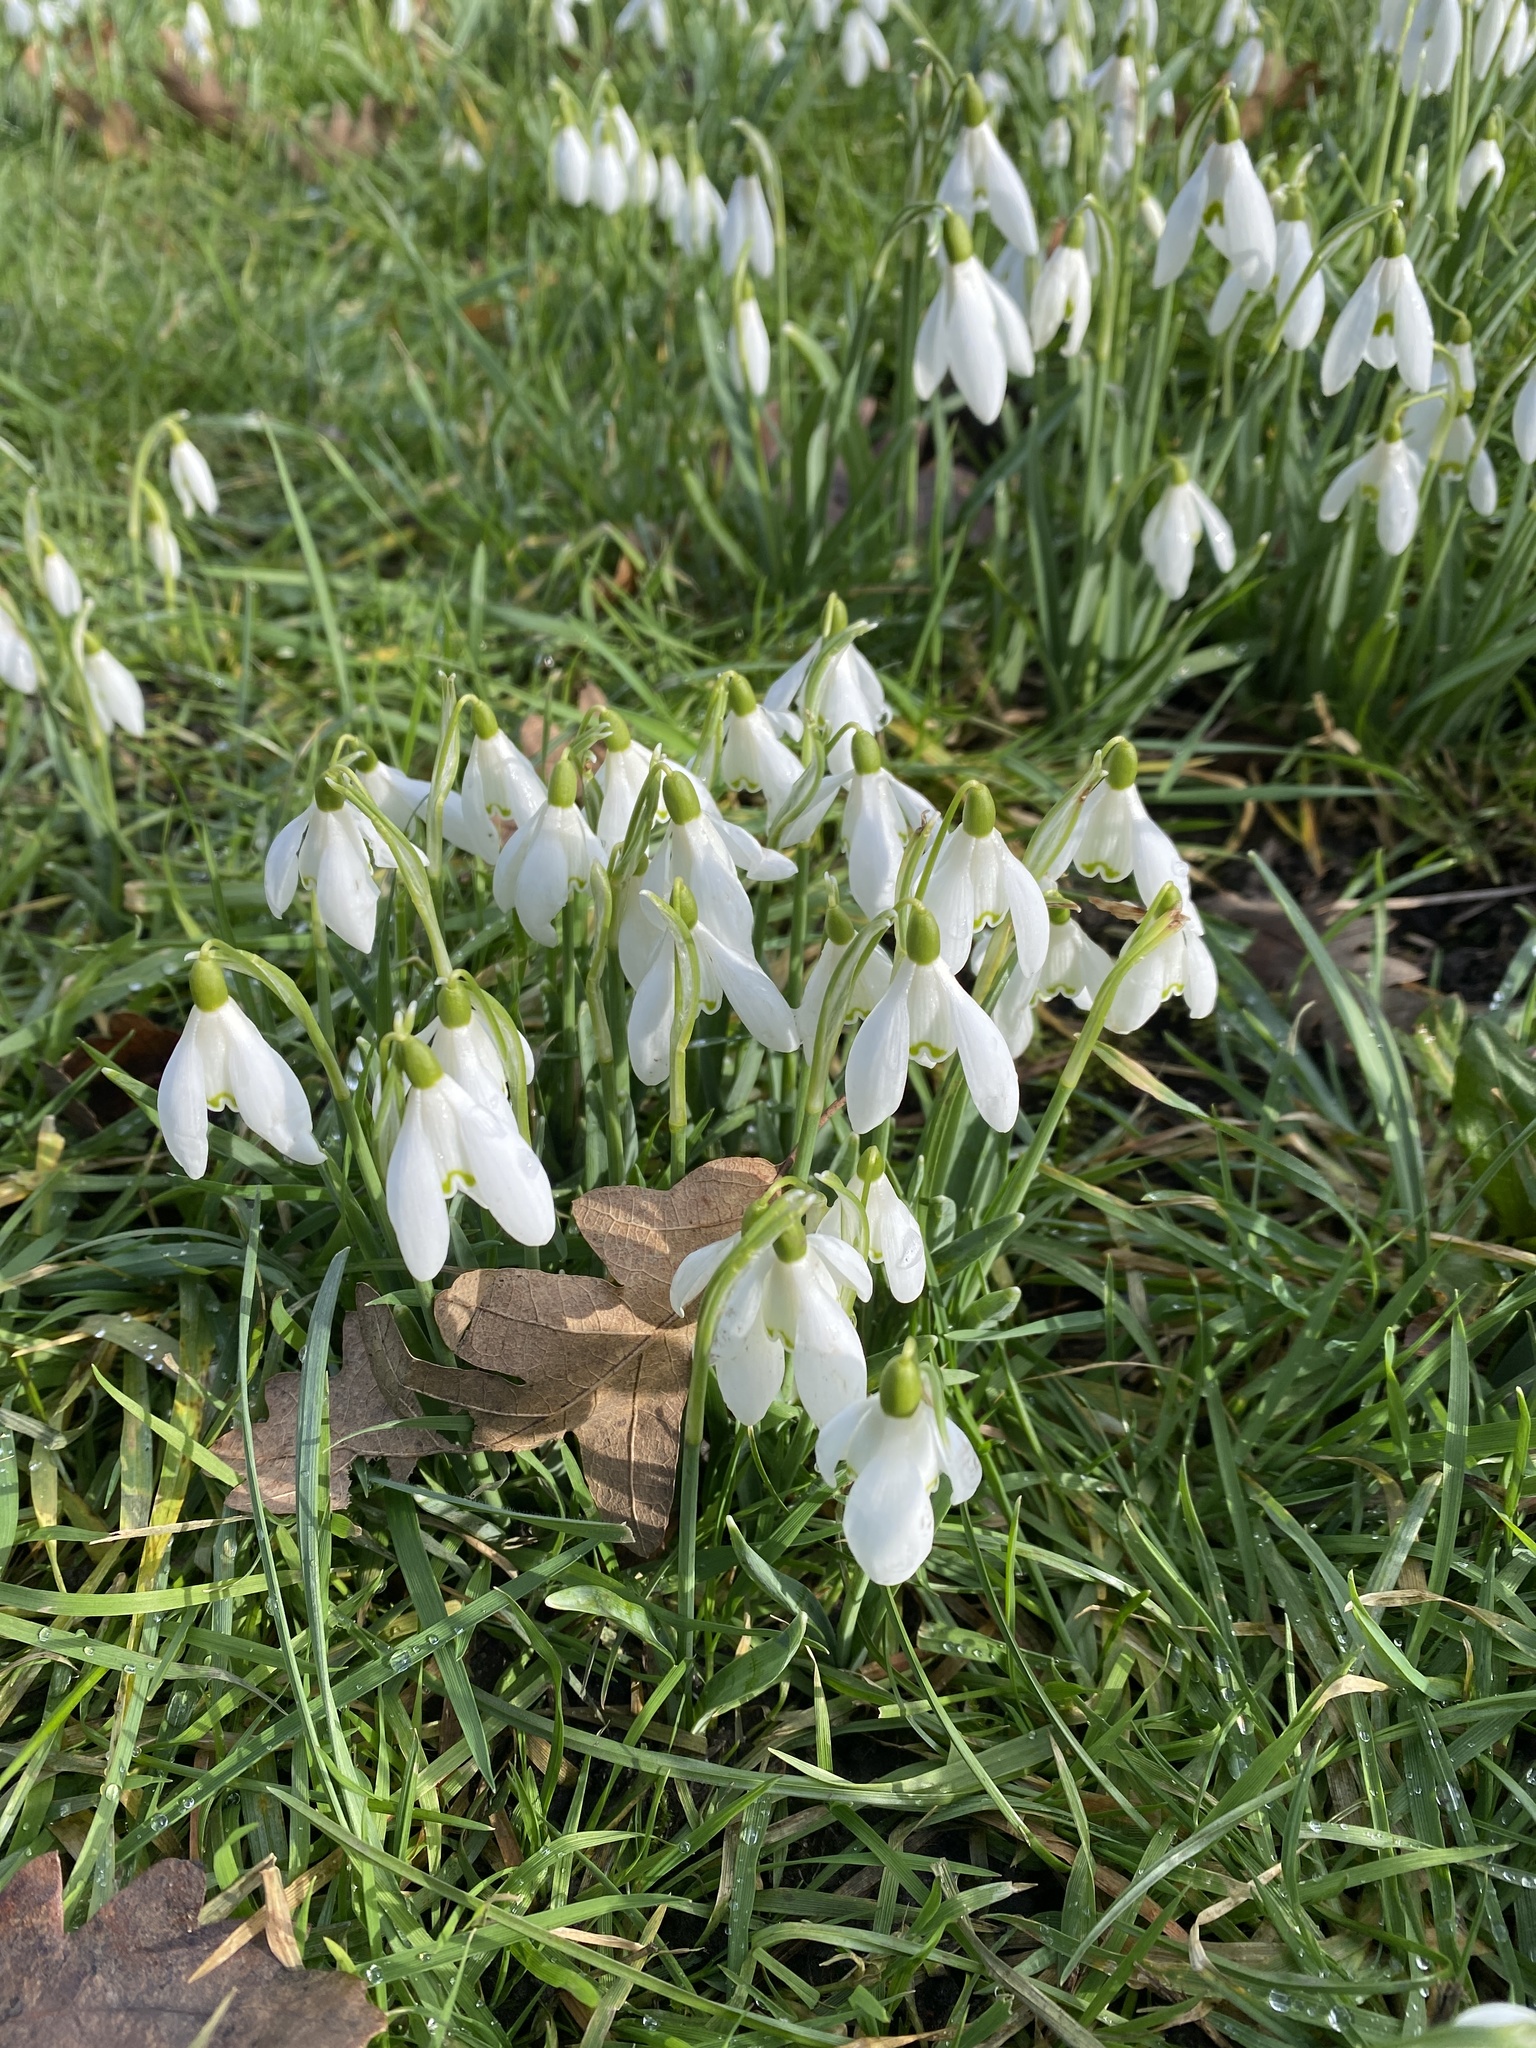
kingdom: Plantae
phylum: Tracheophyta
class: Liliopsida
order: Asparagales
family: Amaryllidaceae
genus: Galanthus
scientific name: Galanthus nivalis
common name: Snowdrop
